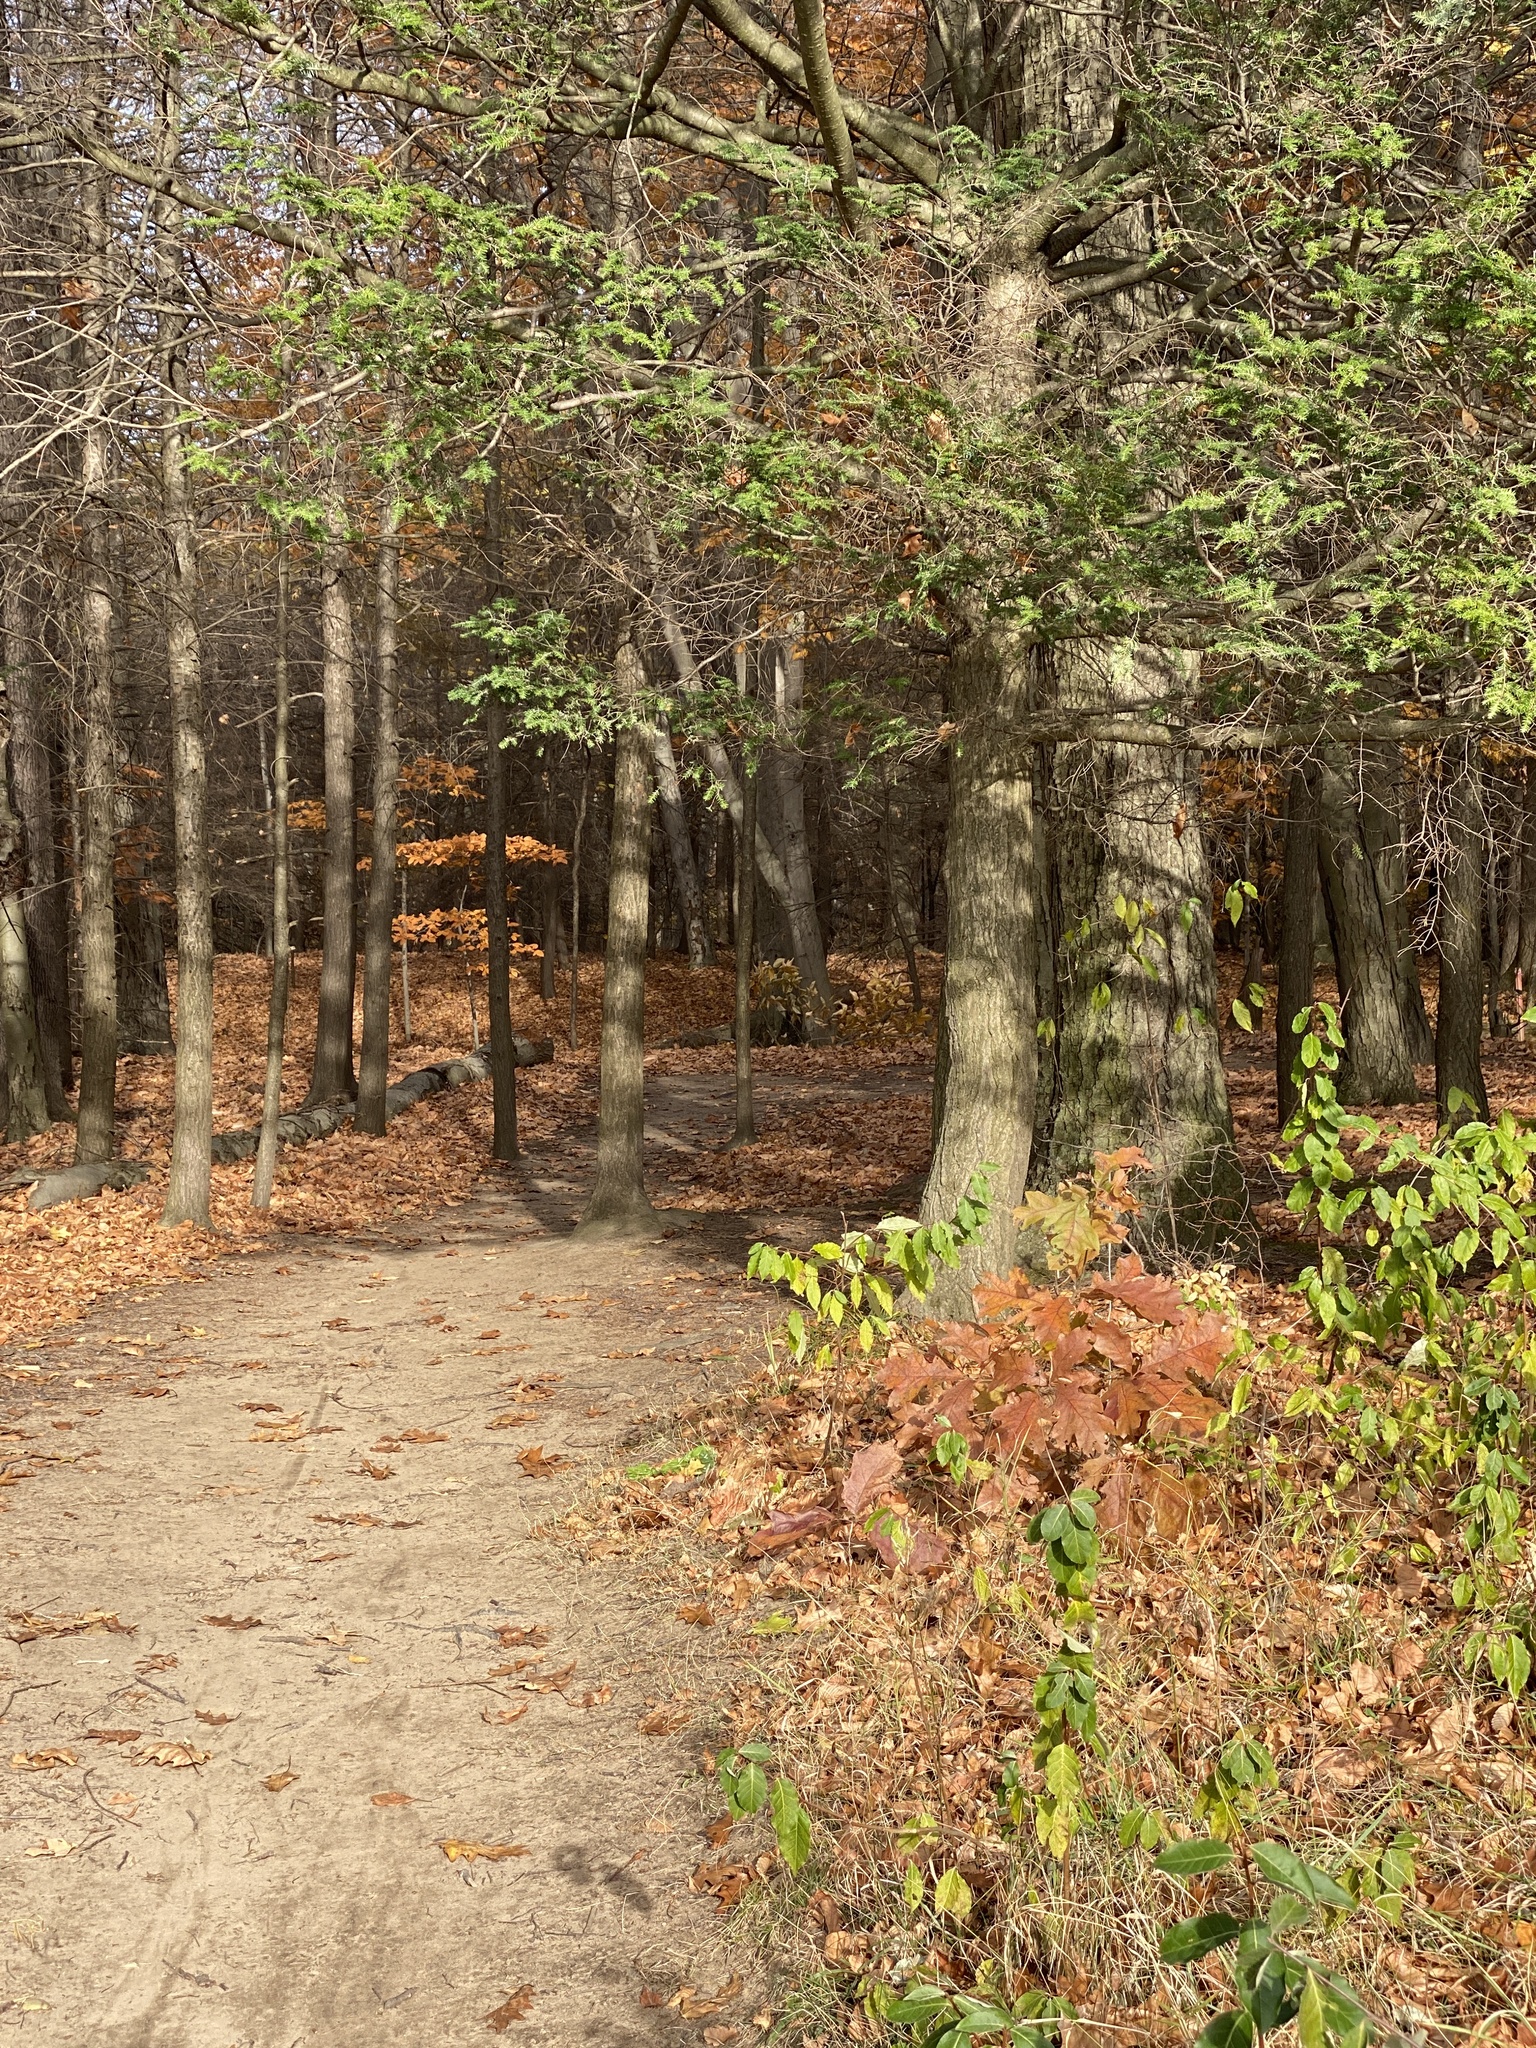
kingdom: Plantae
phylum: Tracheophyta
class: Pinopsida
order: Pinales
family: Pinaceae
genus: Tsuga
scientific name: Tsuga canadensis
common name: Eastern hemlock
